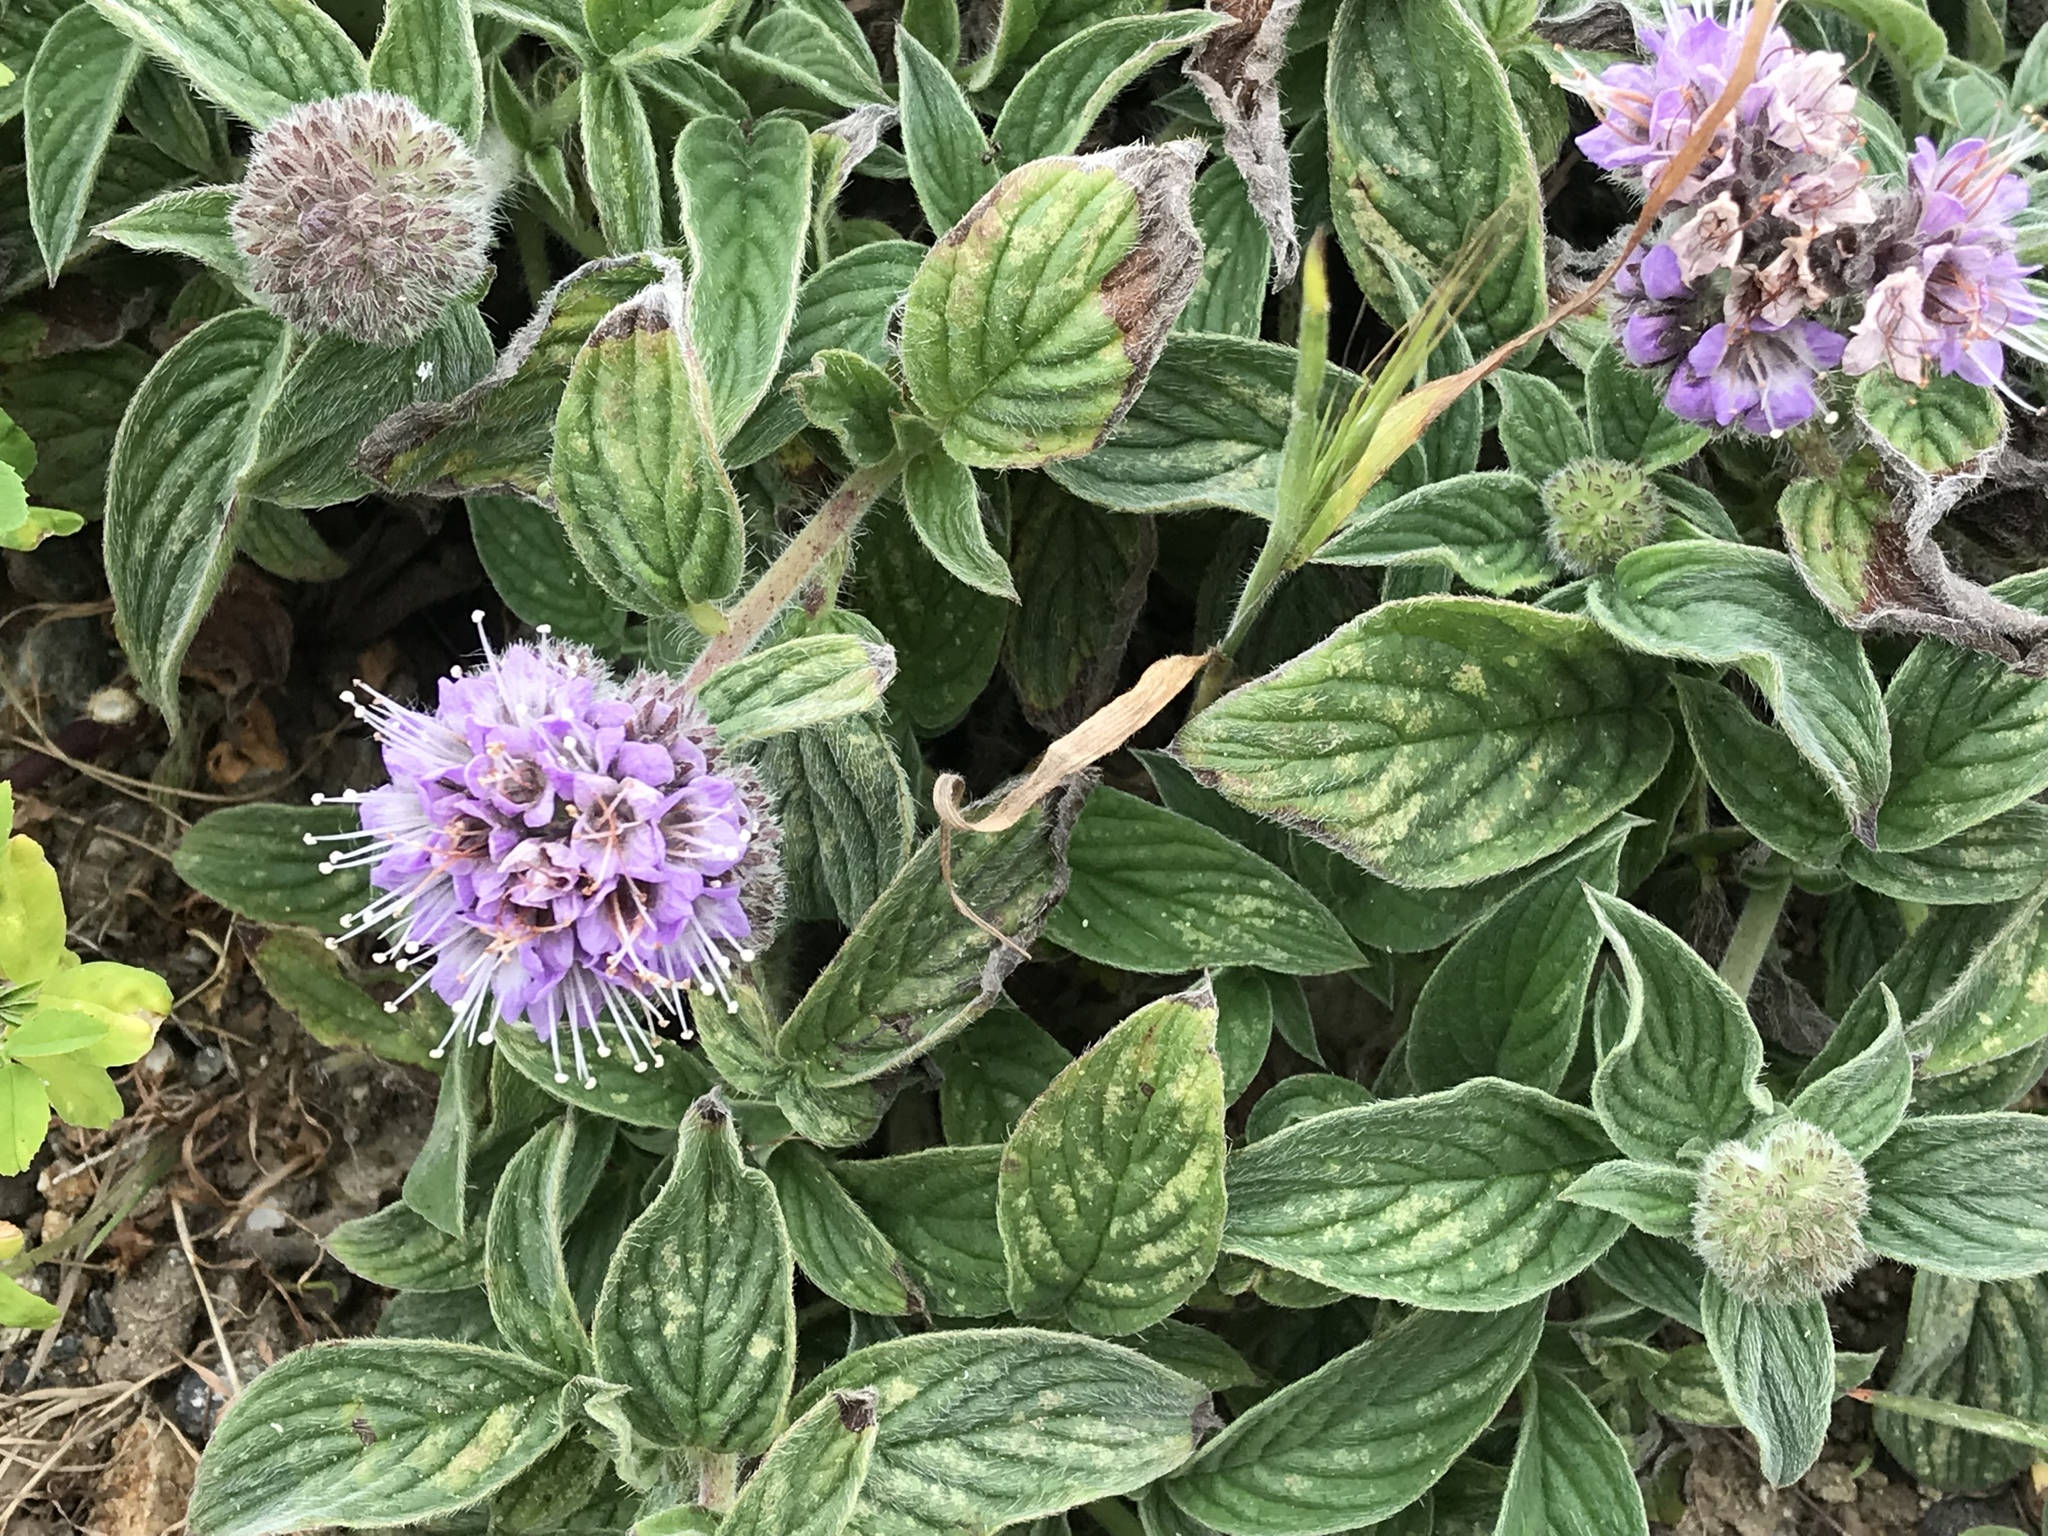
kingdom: Plantae
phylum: Tracheophyta
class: Magnoliopsida
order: Boraginales
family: Hydrophyllaceae
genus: Phacelia
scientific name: Phacelia californica
